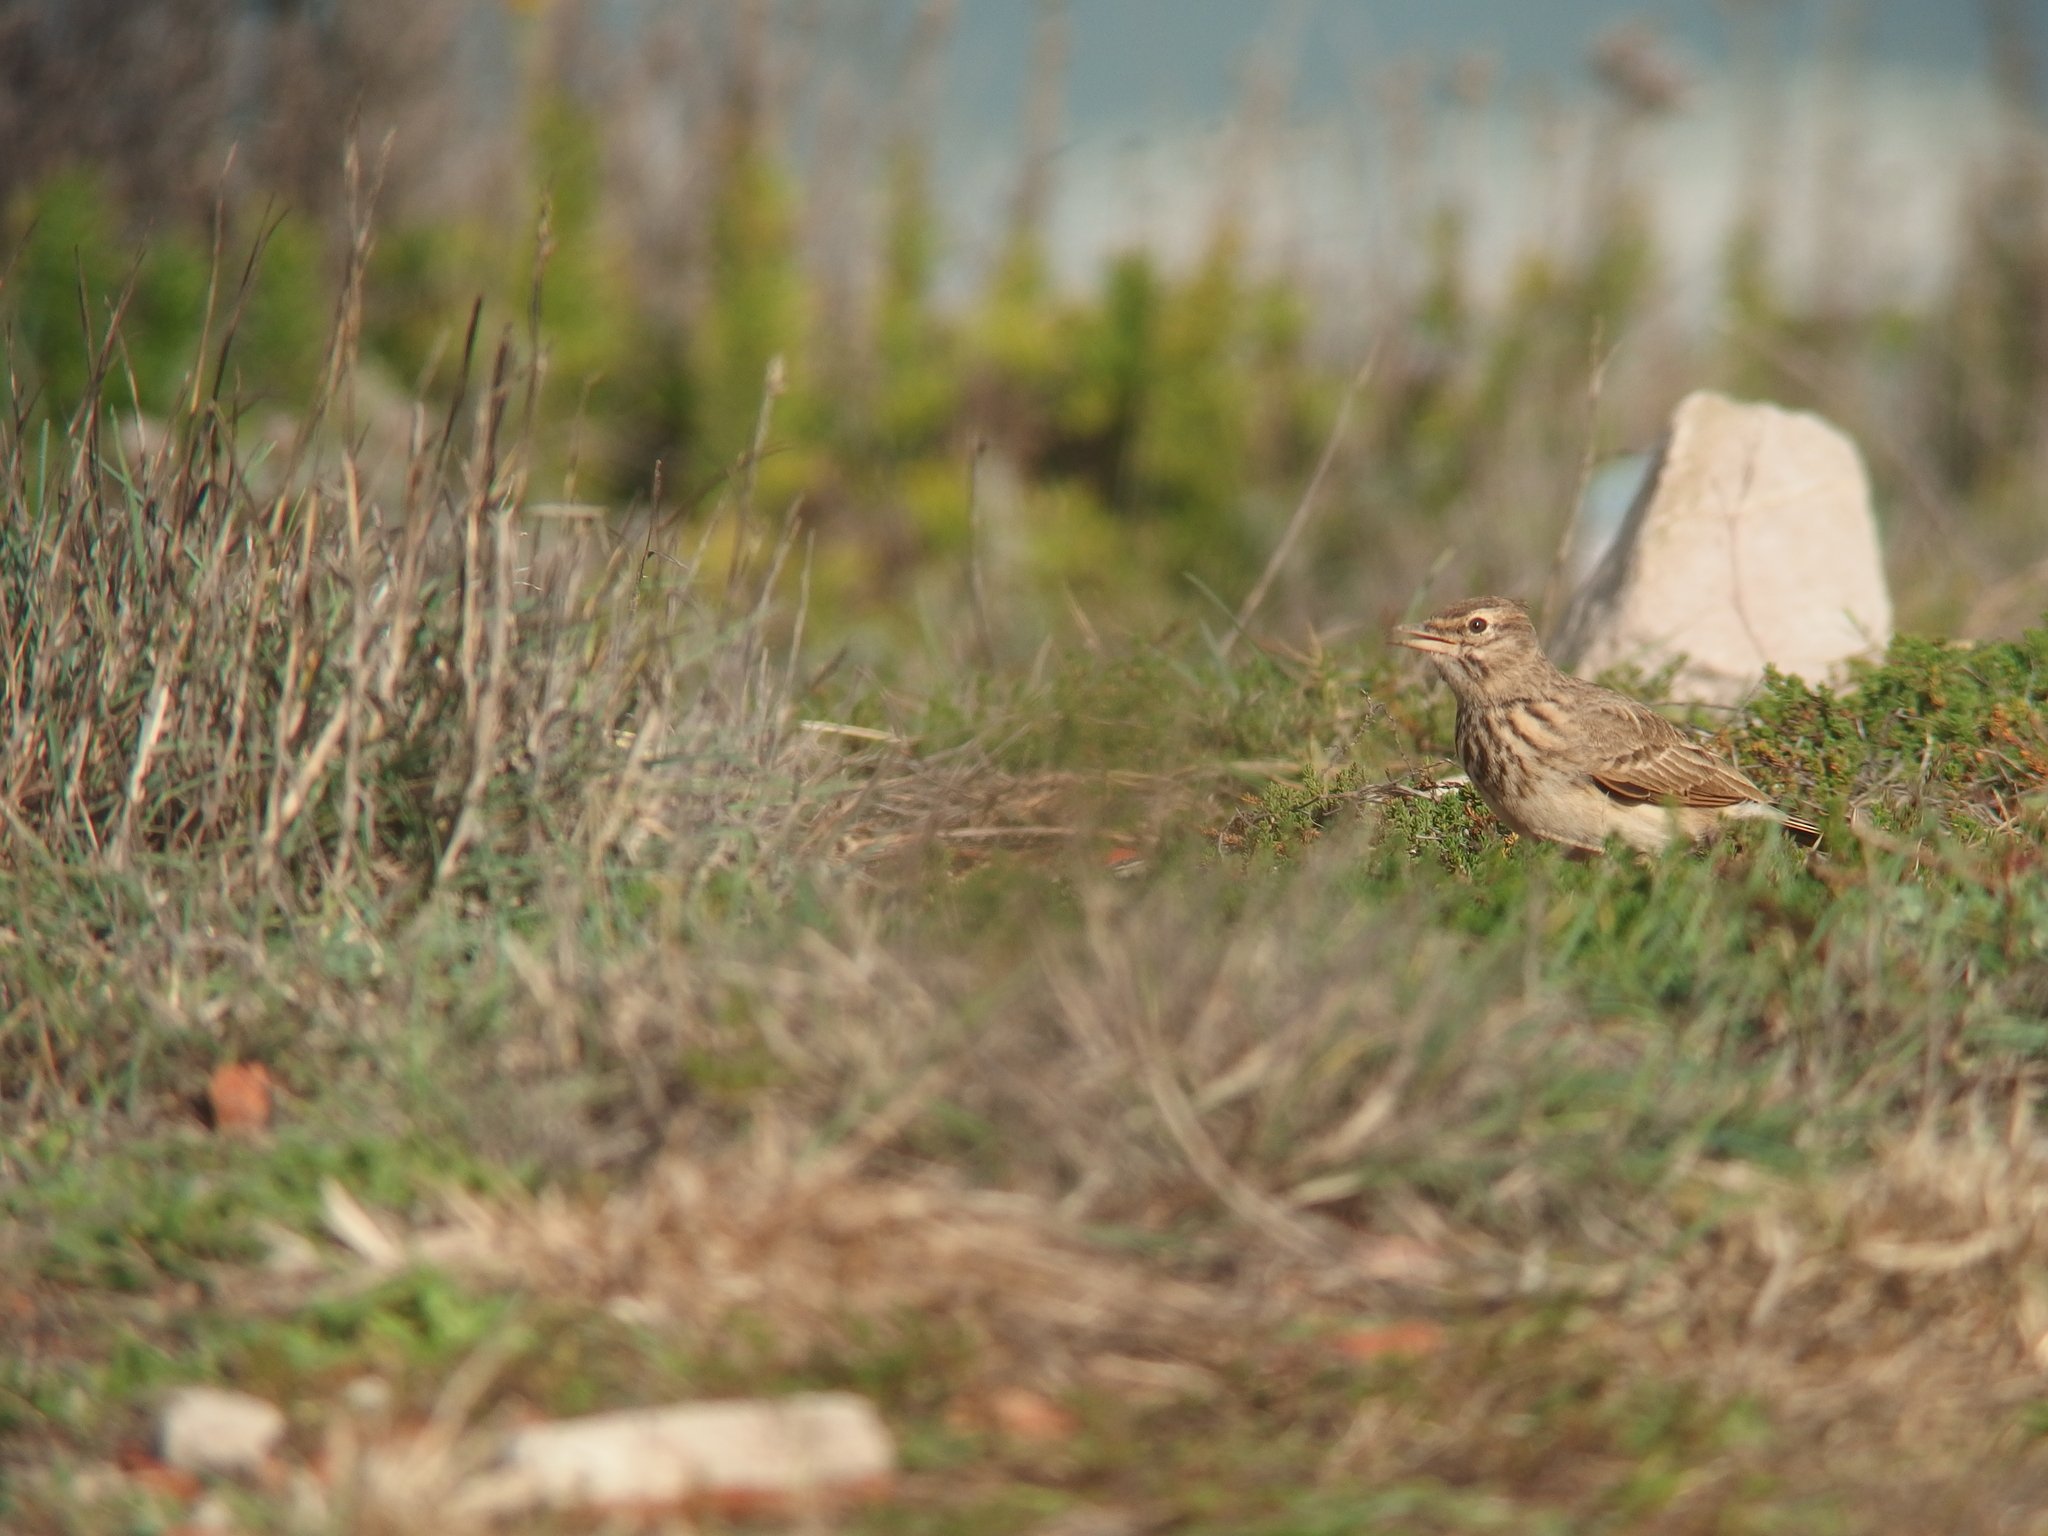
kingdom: Animalia
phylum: Chordata
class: Aves
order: Passeriformes
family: Alaudidae
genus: Galerida
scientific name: Galerida cristata
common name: Crested lark
